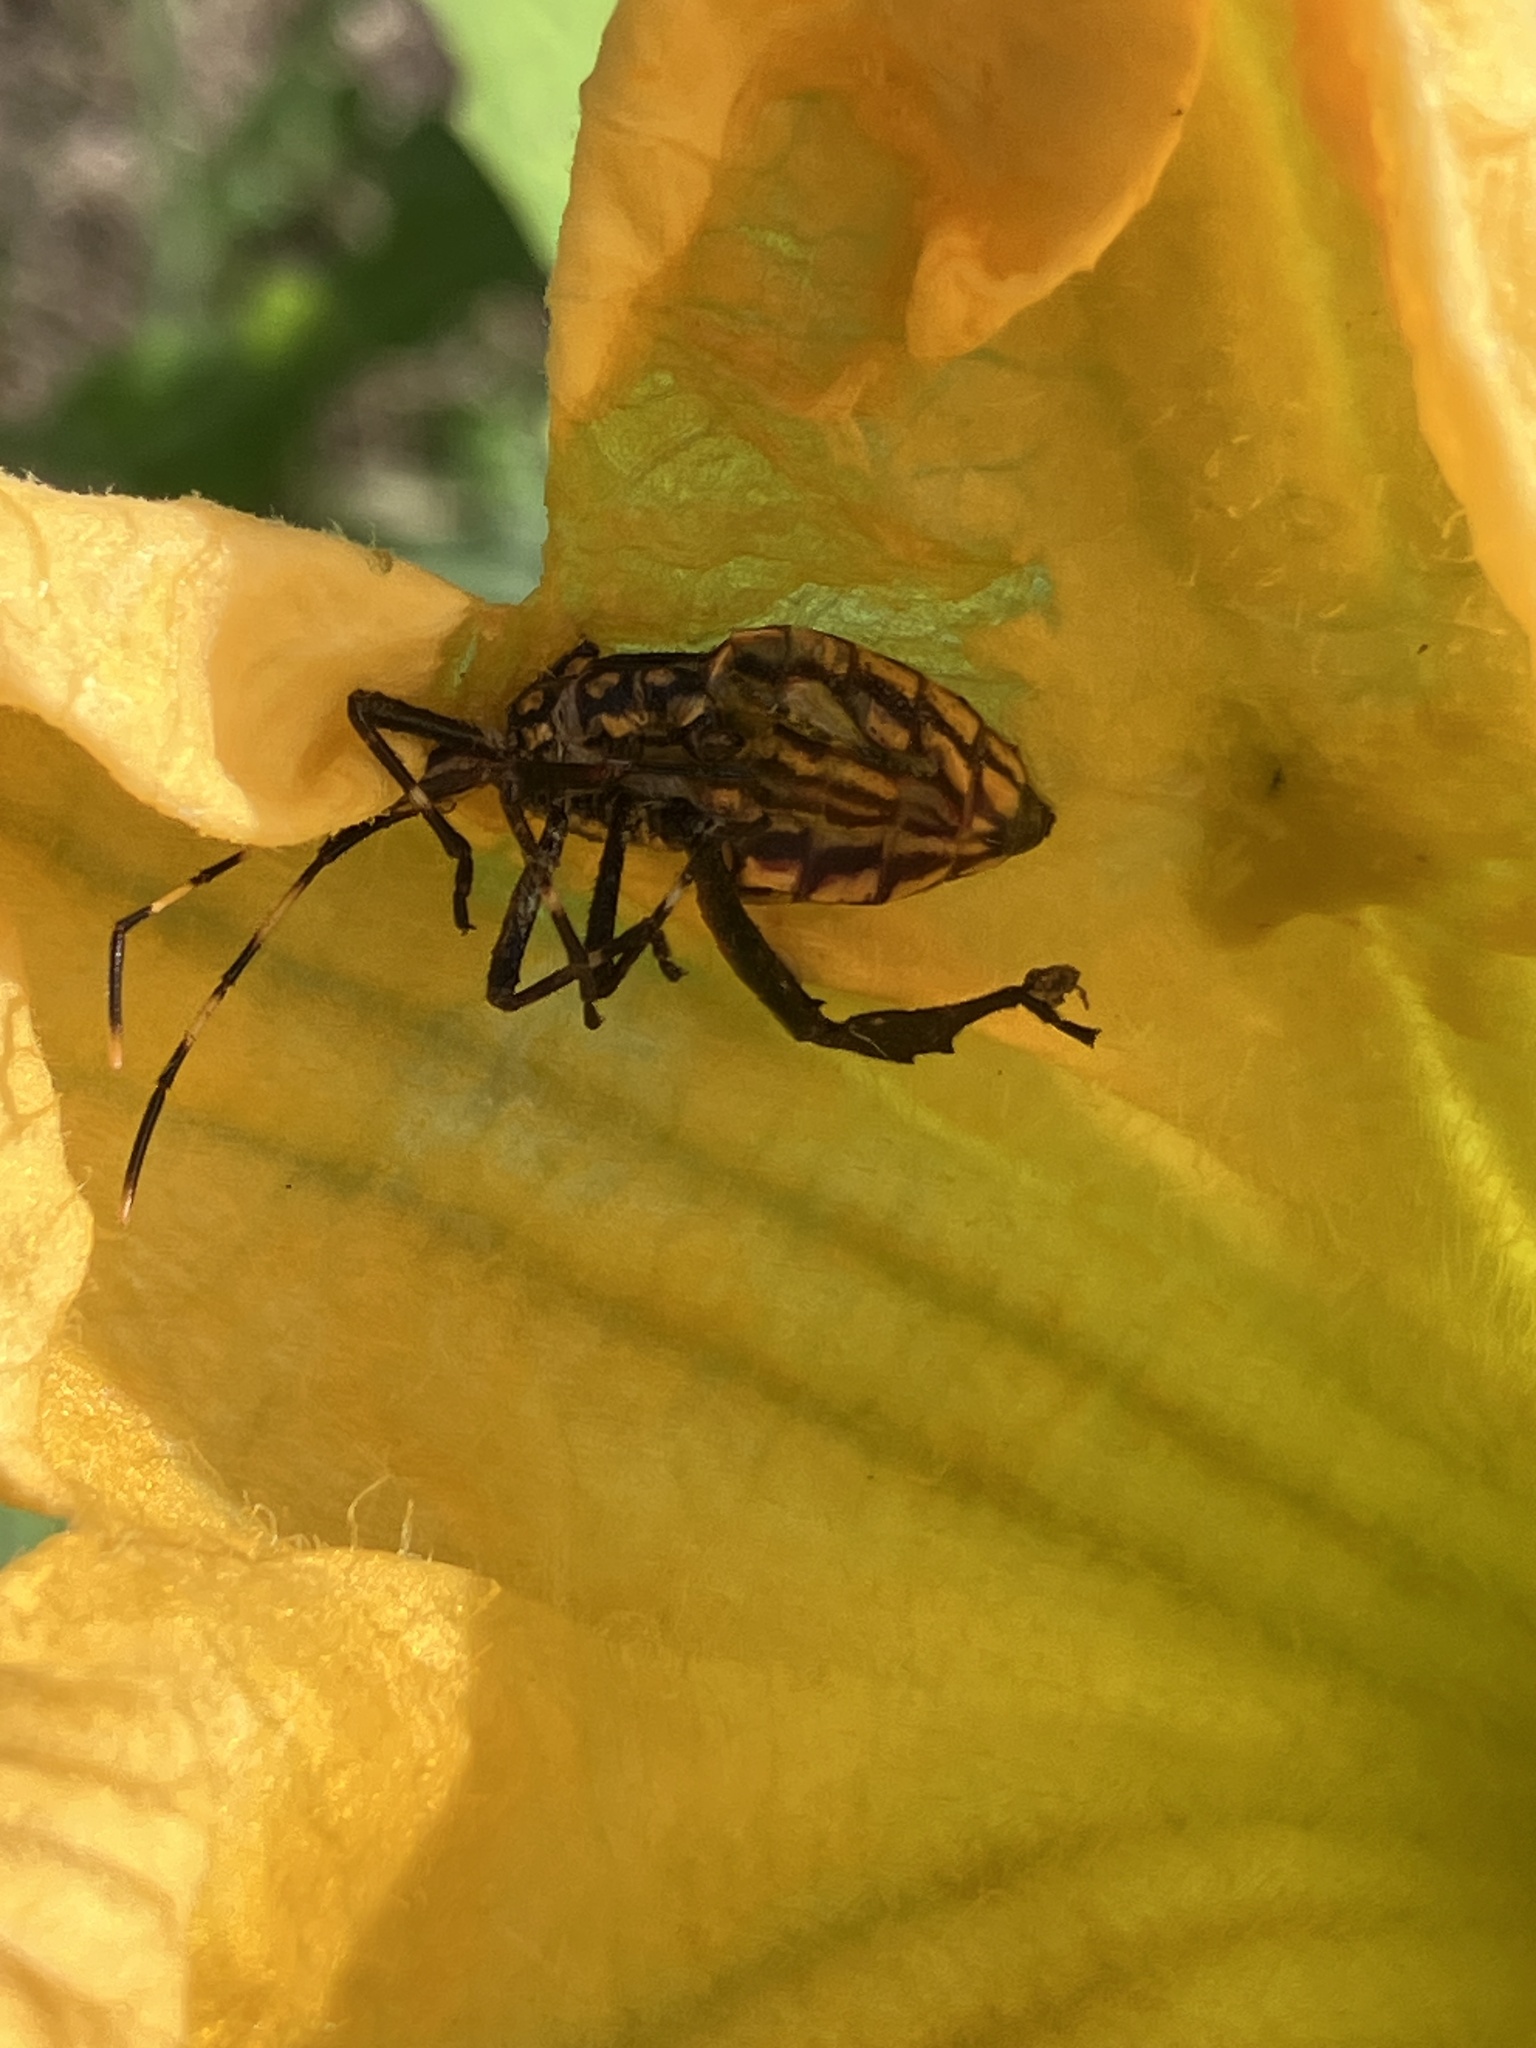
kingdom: Animalia
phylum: Arthropoda
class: Insecta
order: Hemiptera
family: Coreidae
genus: Leptoglossus
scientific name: Leptoglossus gonagra
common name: Citron bug
